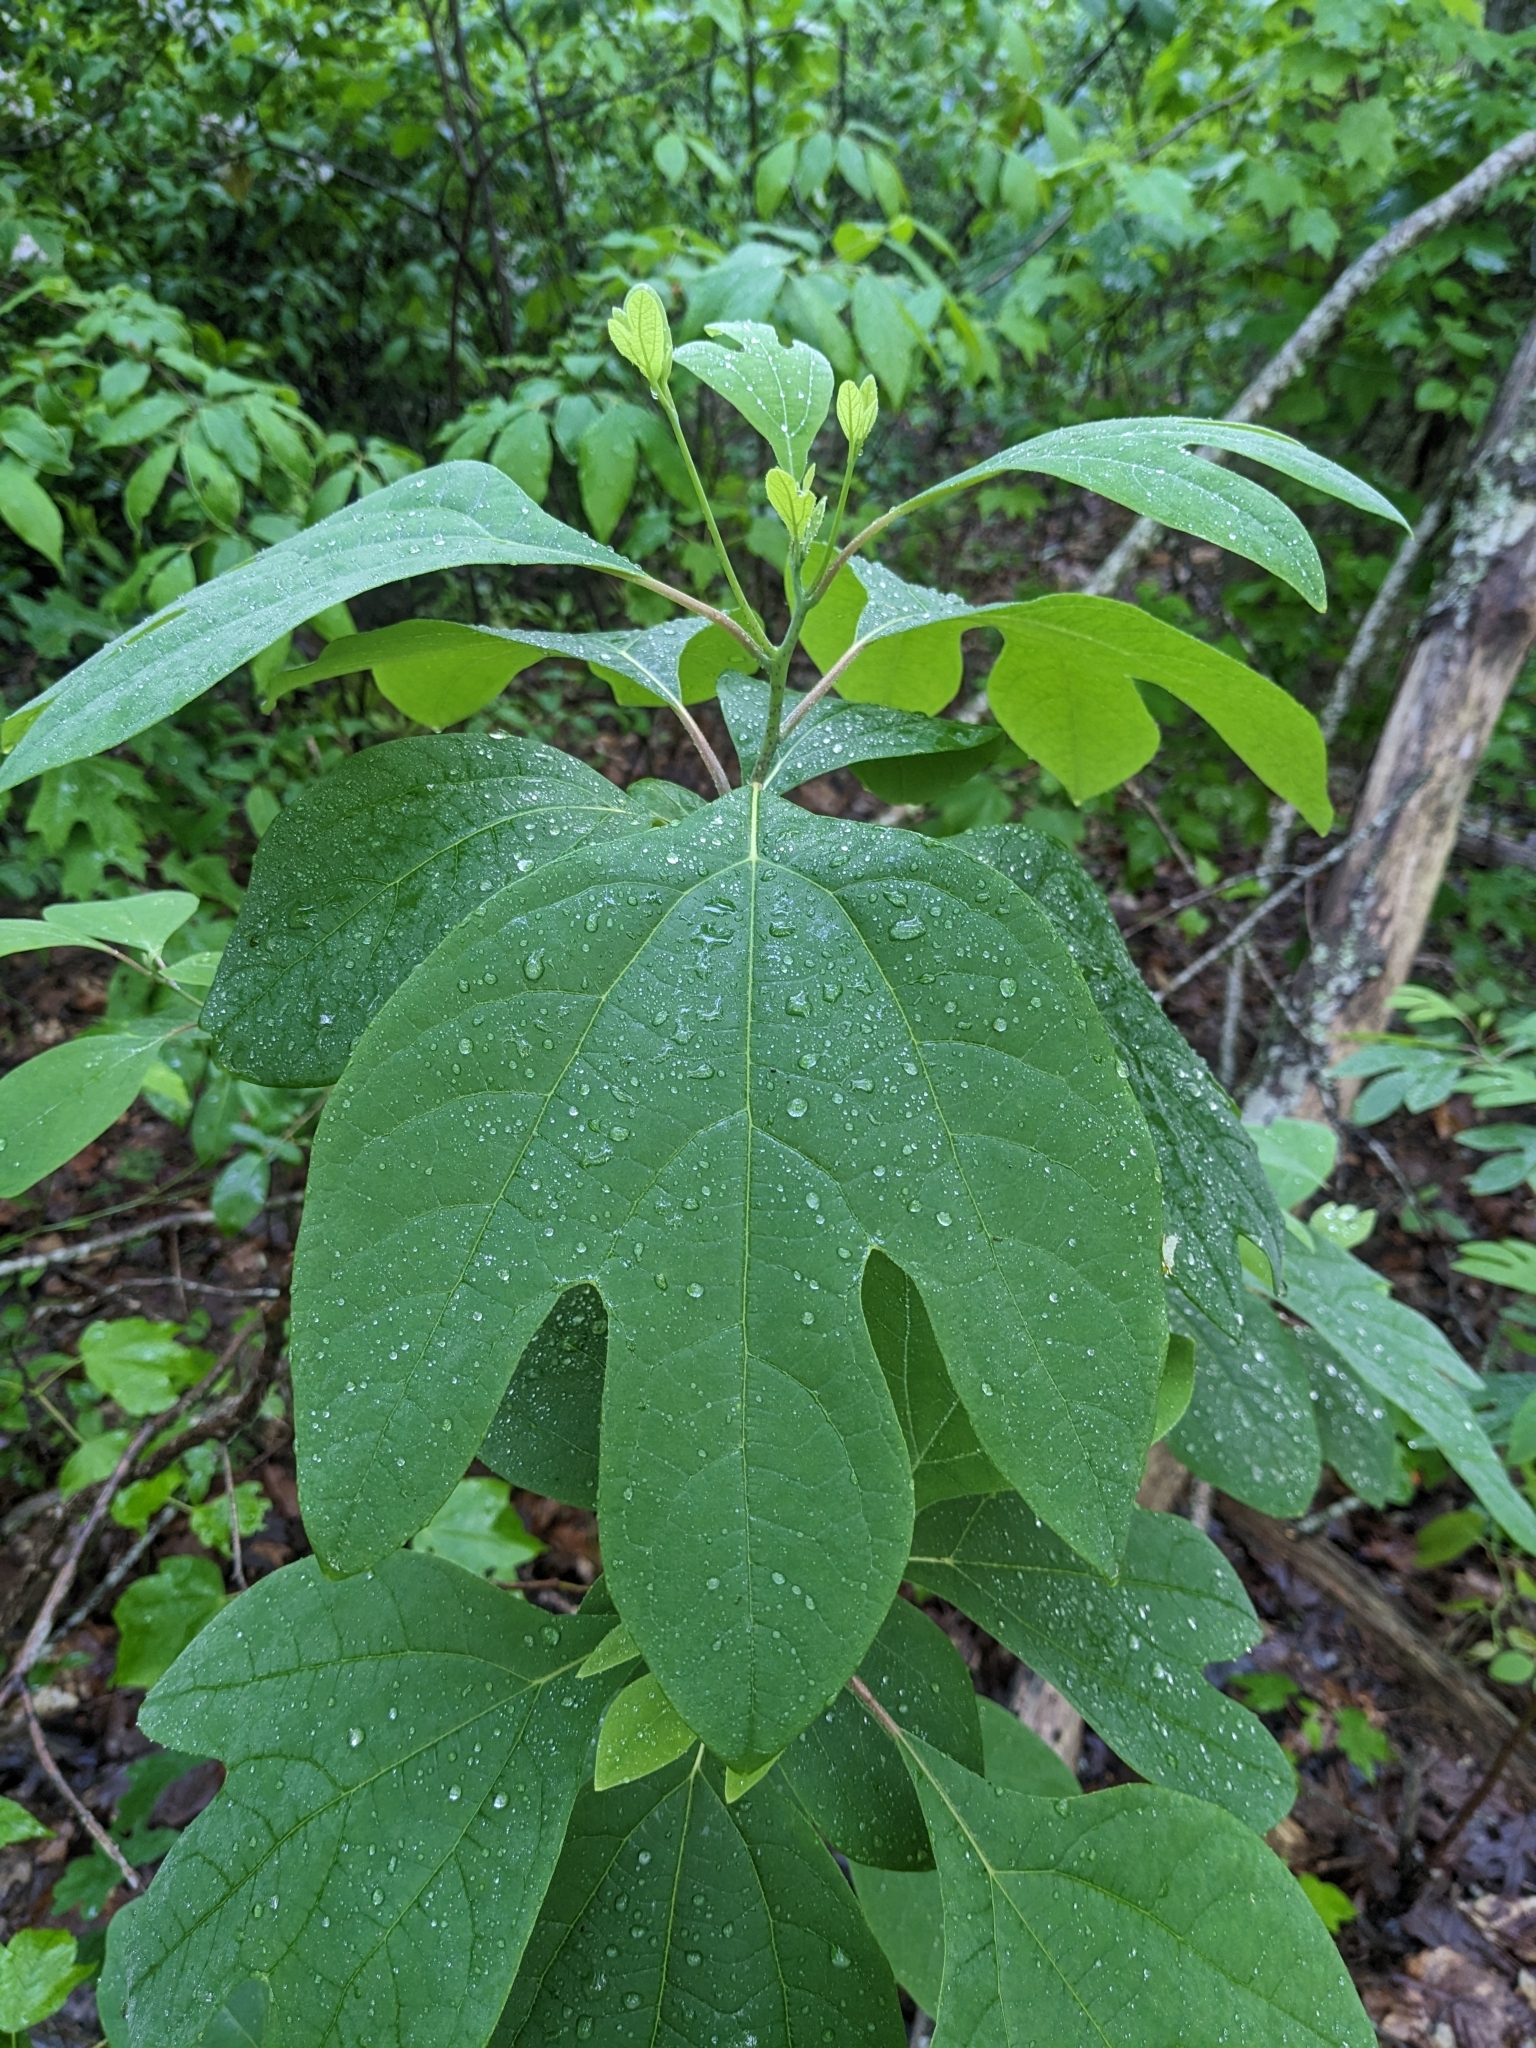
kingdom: Plantae
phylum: Tracheophyta
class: Magnoliopsida
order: Laurales
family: Lauraceae
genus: Sassafras
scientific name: Sassafras albidum
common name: Sassafras
